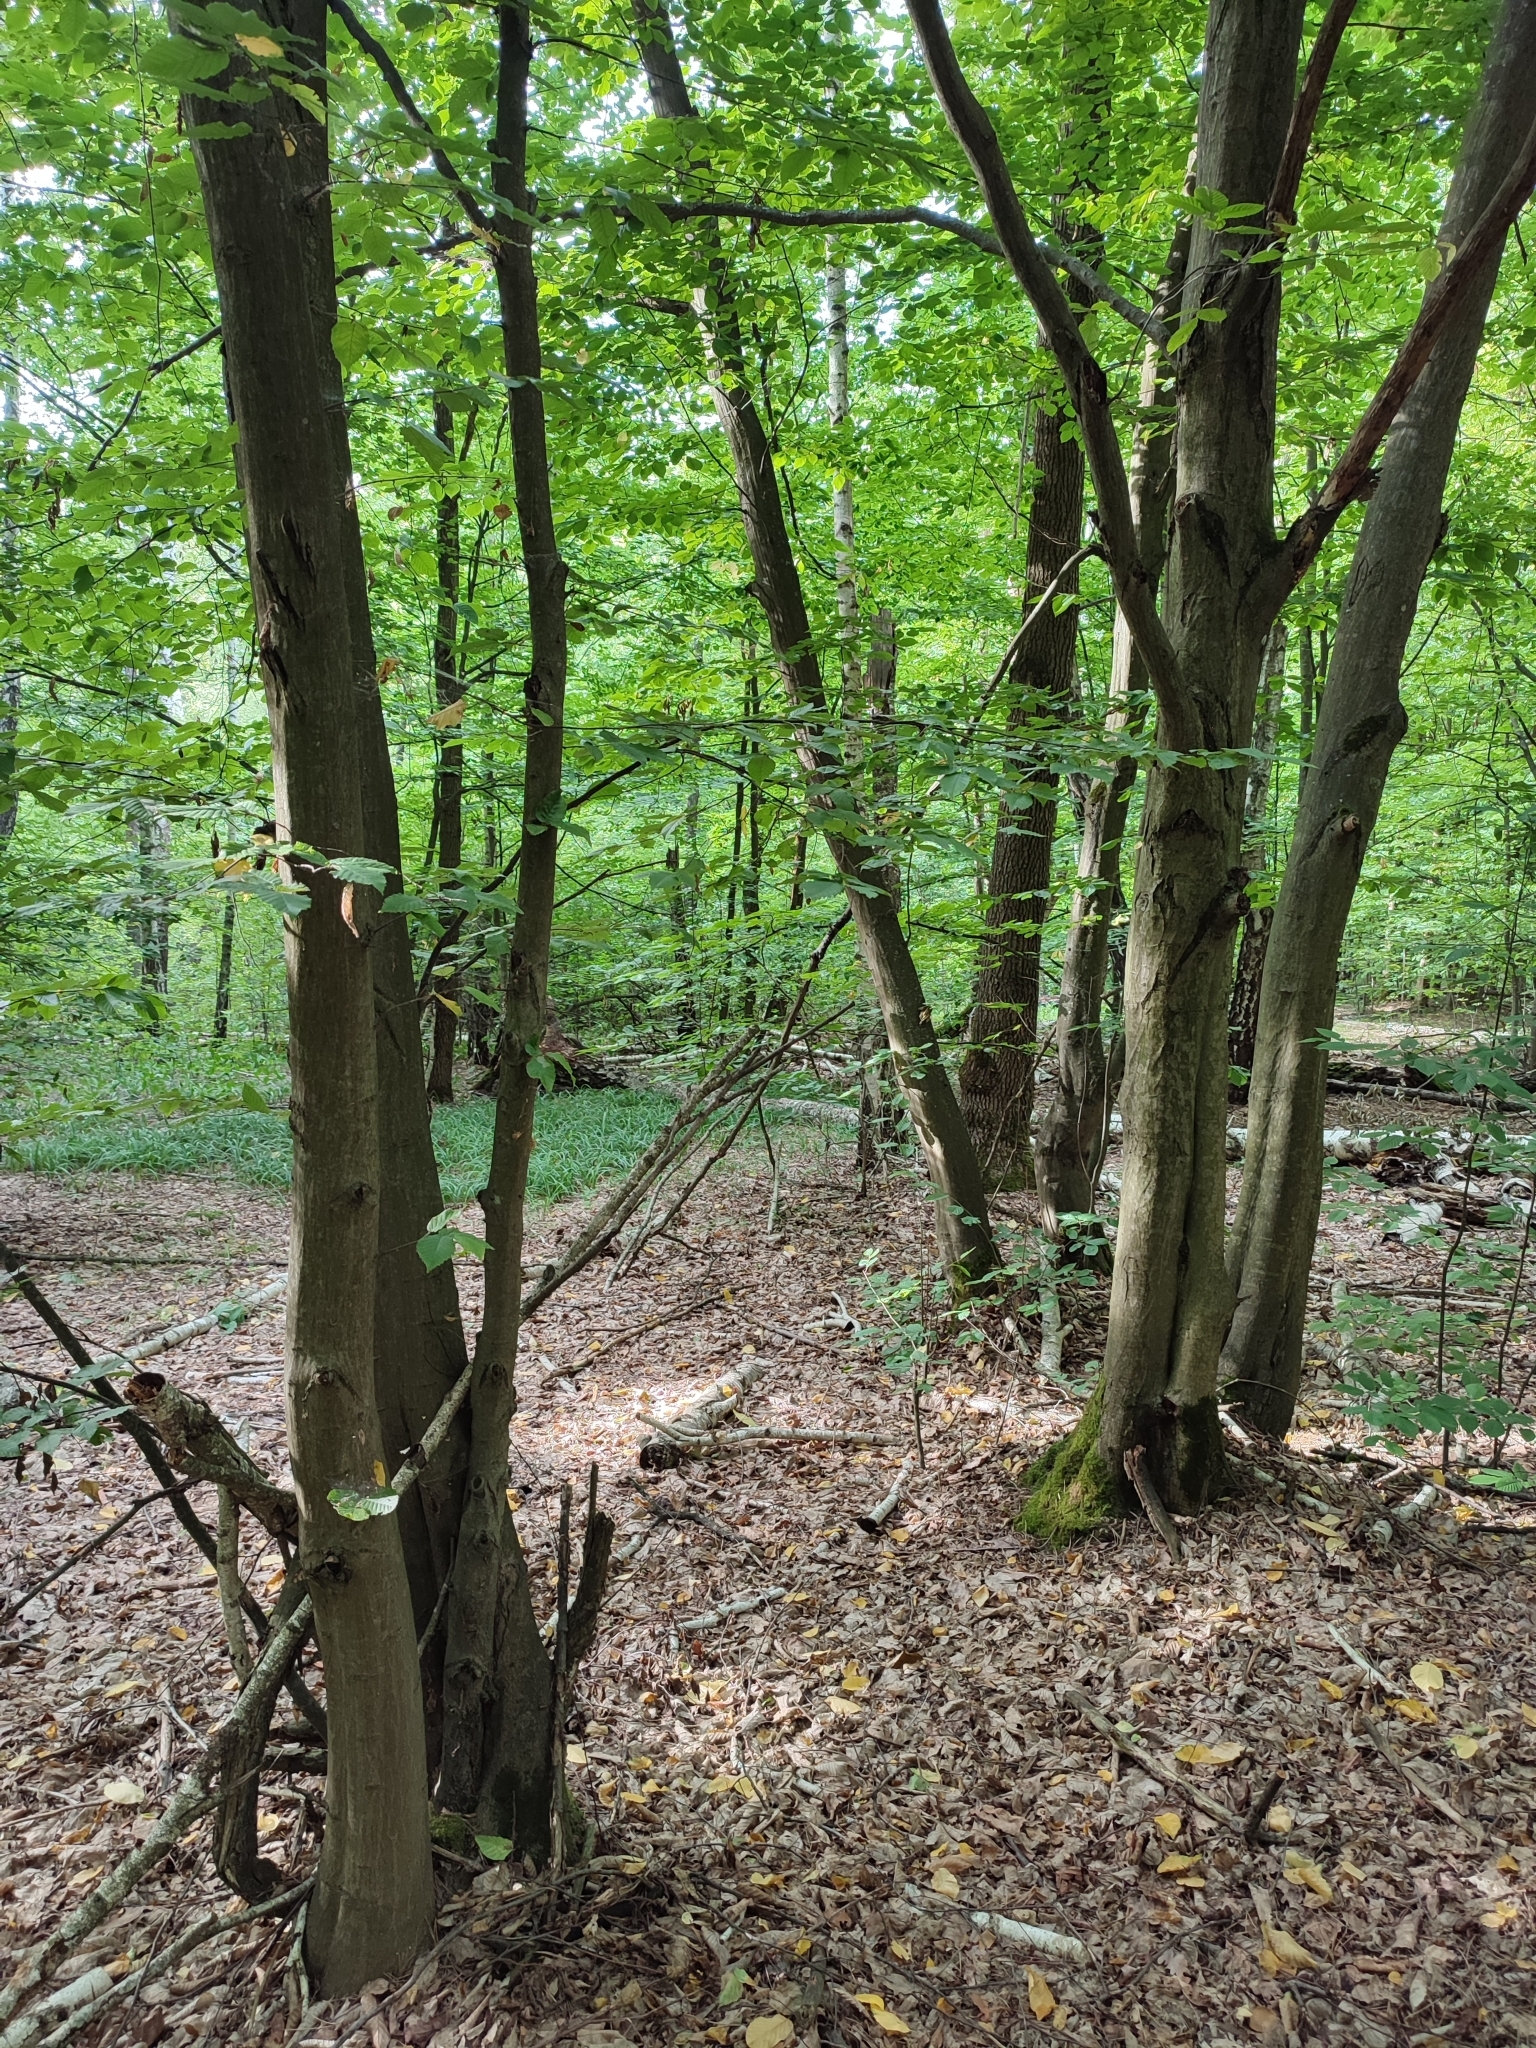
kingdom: Plantae
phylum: Tracheophyta
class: Magnoliopsida
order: Fagales
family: Betulaceae
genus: Carpinus
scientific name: Carpinus betulus
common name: Hornbeam
